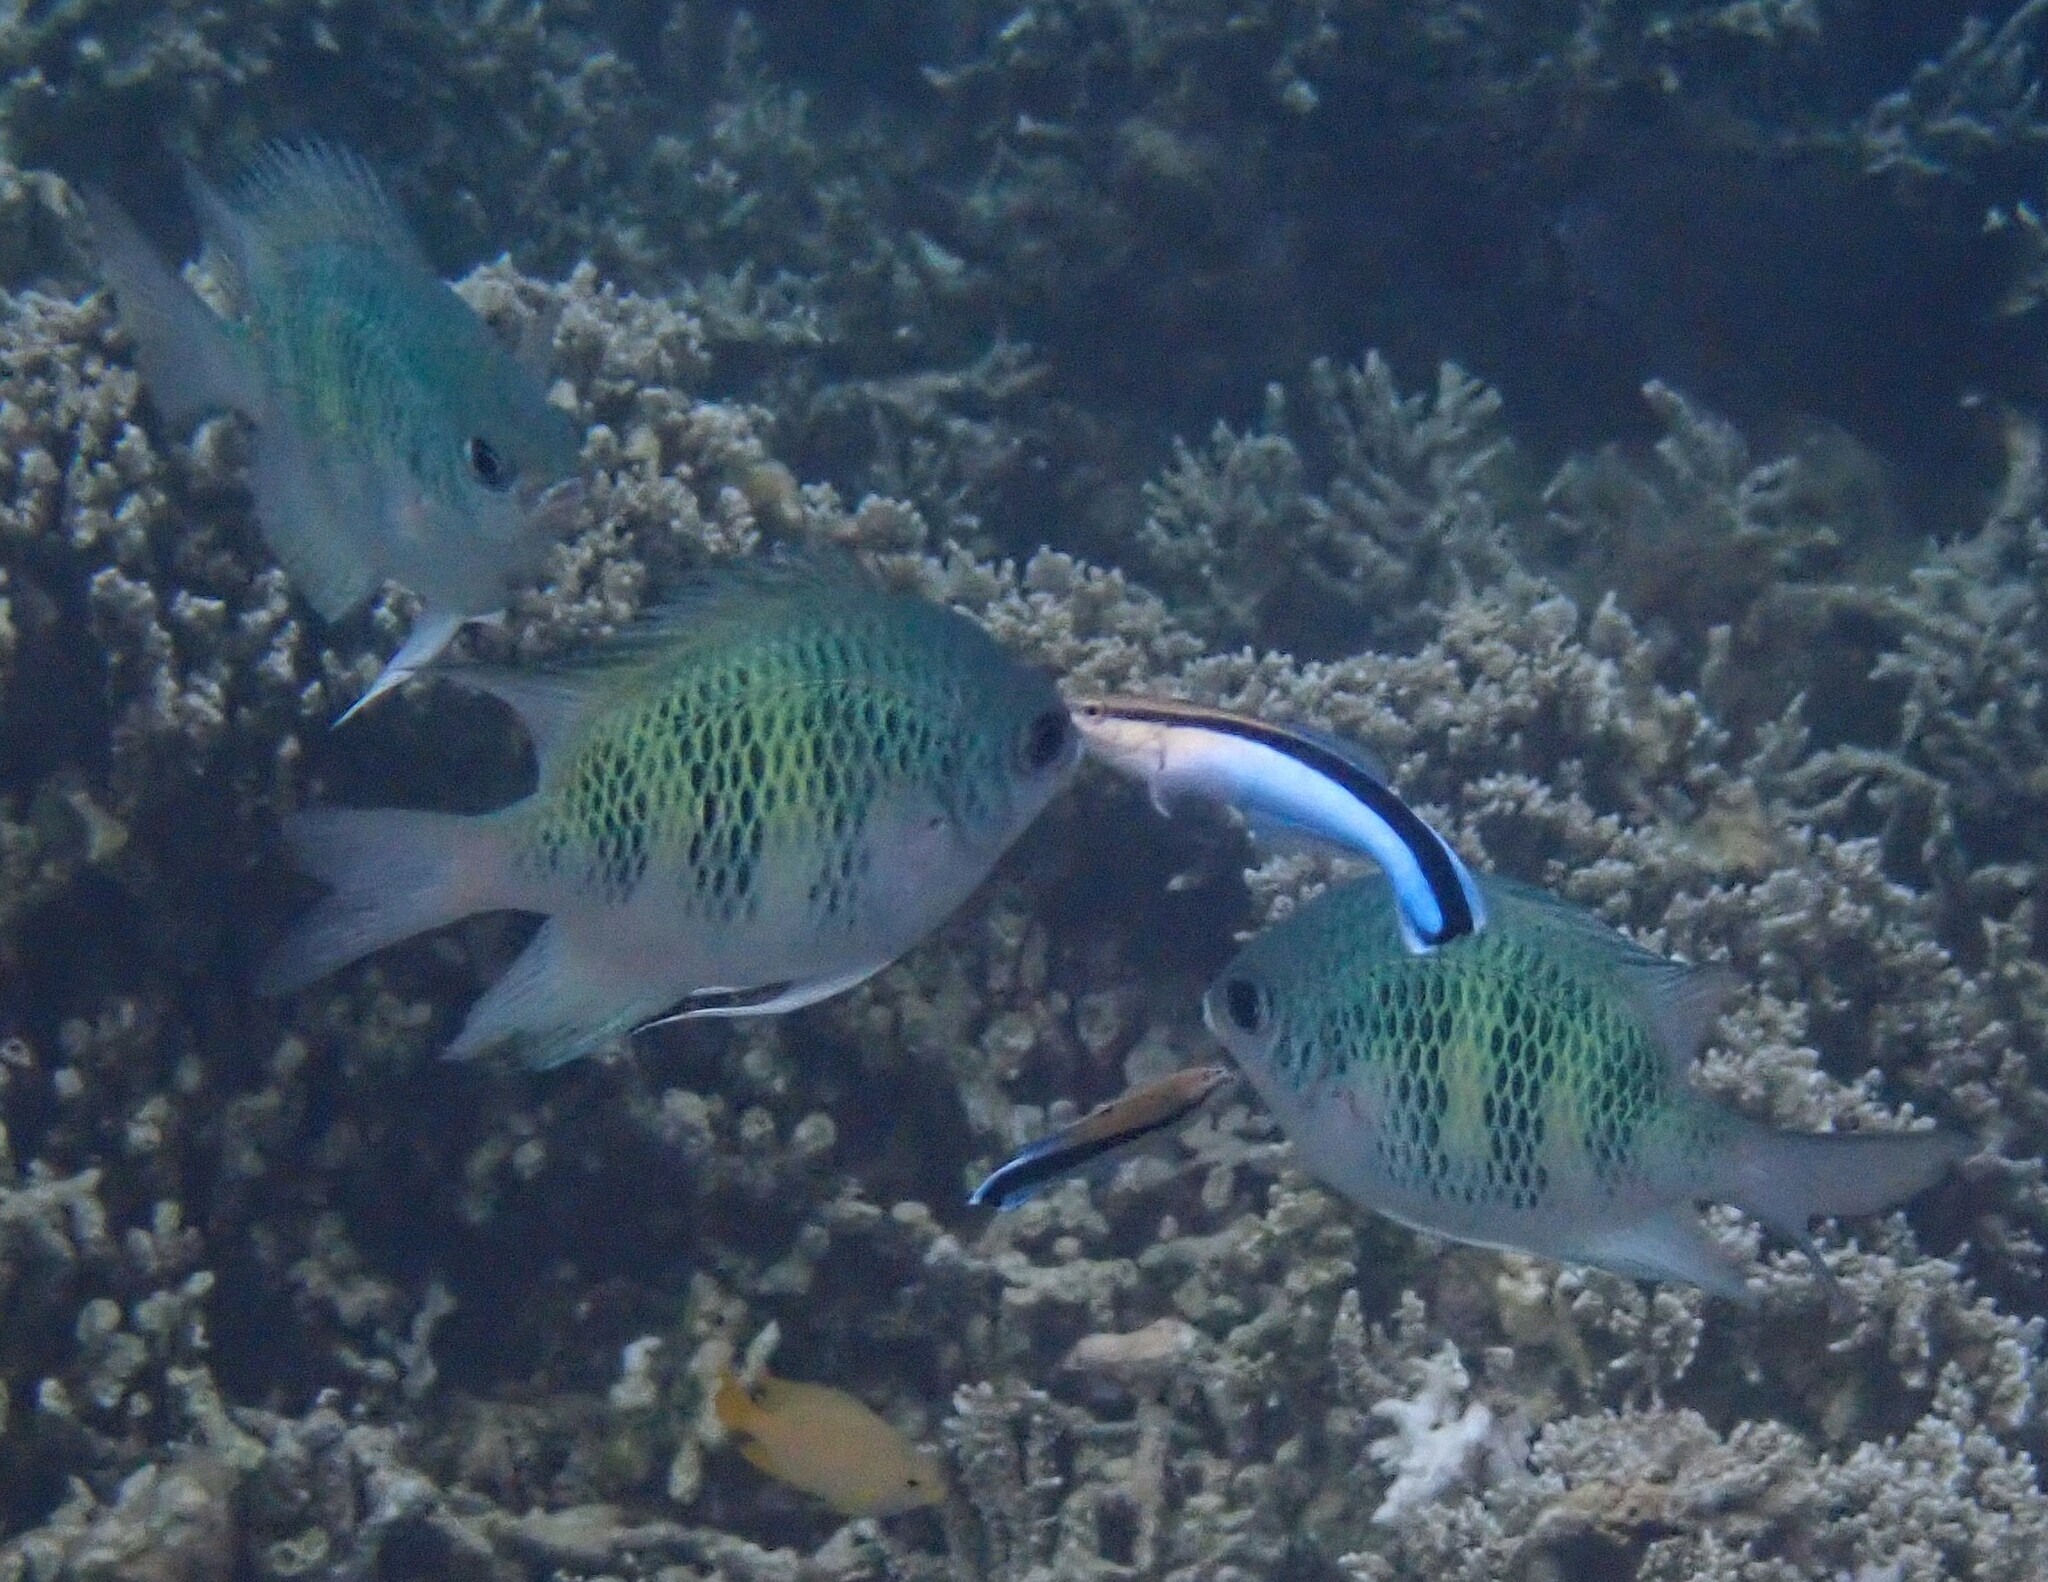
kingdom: Animalia
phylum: Chordata
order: Perciformes
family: Pomacentridae
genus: Amblyglyphidodon
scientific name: Amblyglyphidodon curacao
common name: Staghorn damsel
